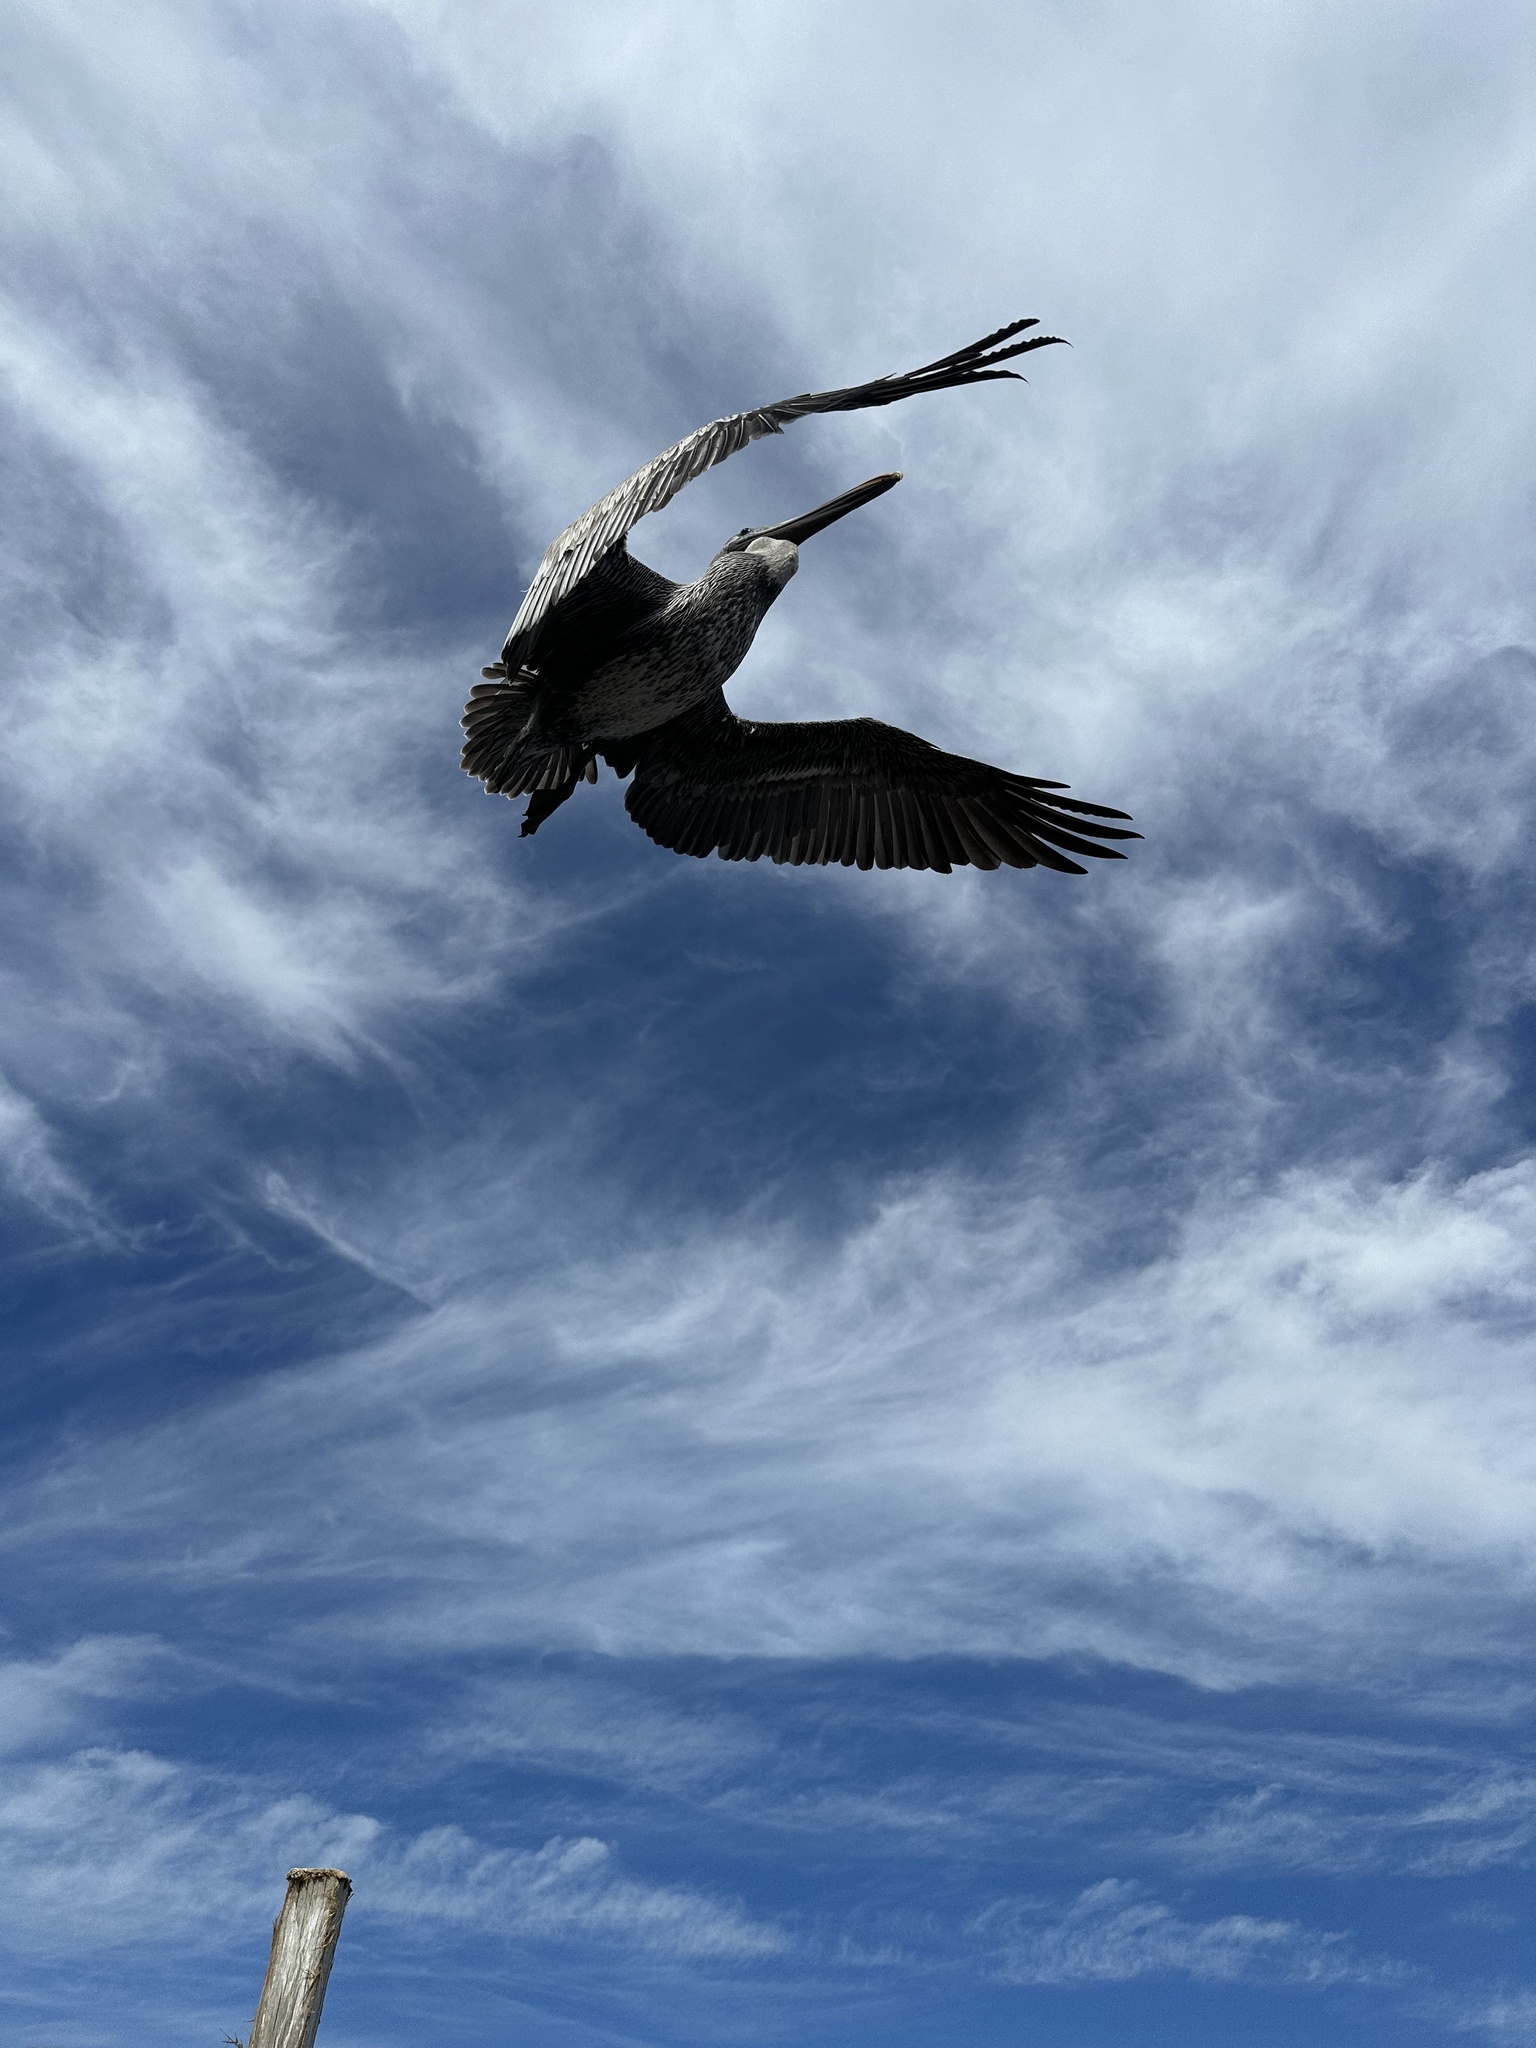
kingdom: Animalia
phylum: Chordata
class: Aves
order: Pelecaniformes
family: Pelecanidae
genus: Pelecanus
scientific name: Pelecanus occidentalis
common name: Brown pelican
